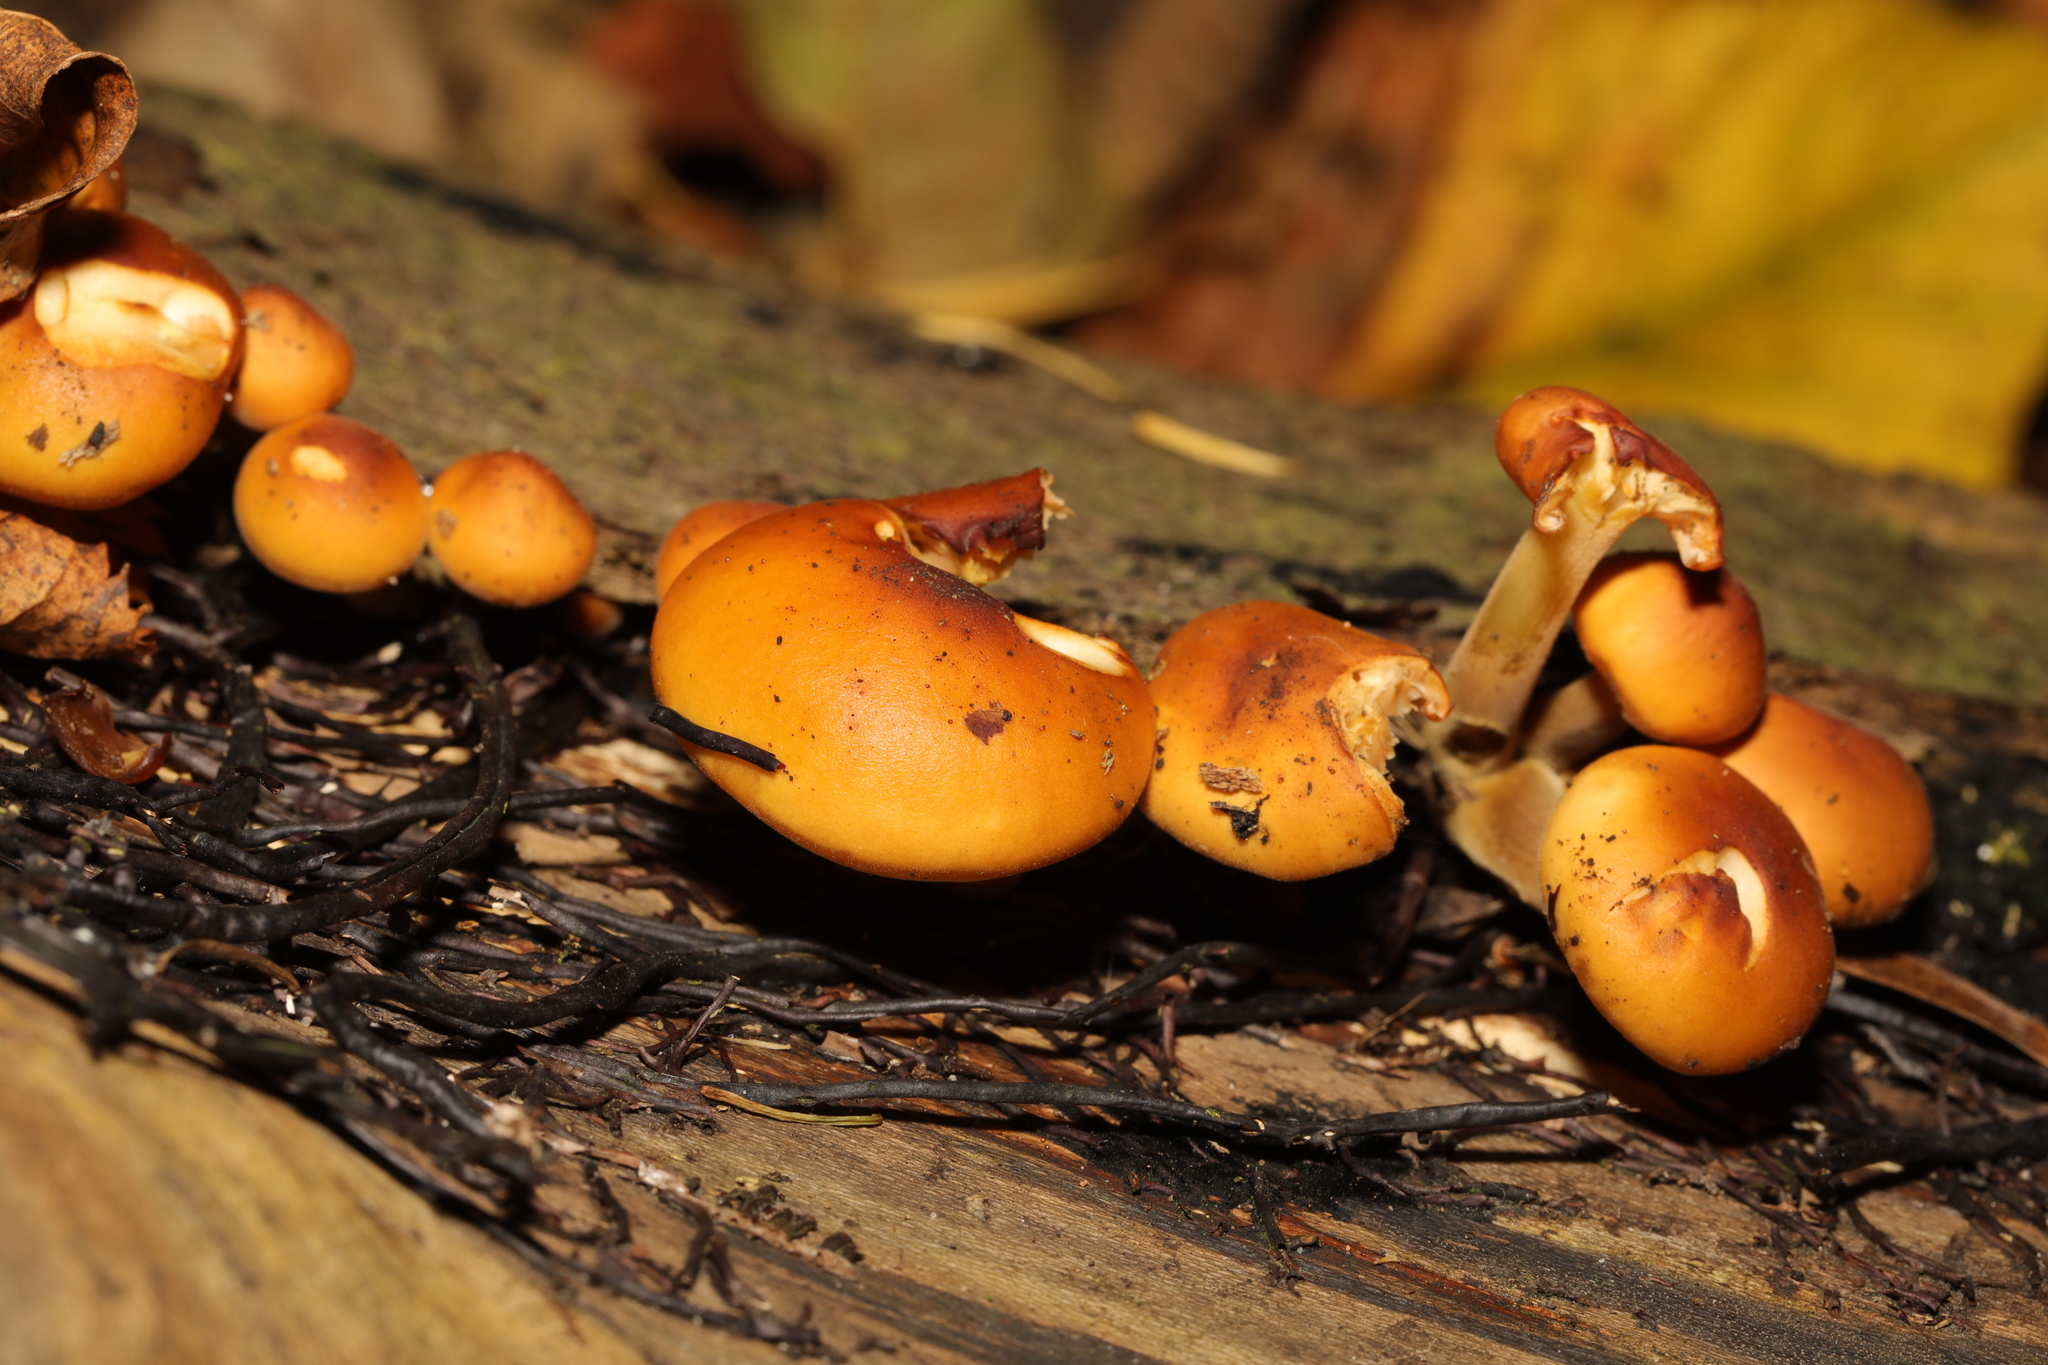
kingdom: Fungi
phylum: Basidiomycota
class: Agaricomycetes
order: Agaricales
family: Physalacriaceae
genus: Flammulina
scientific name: Flammulina
